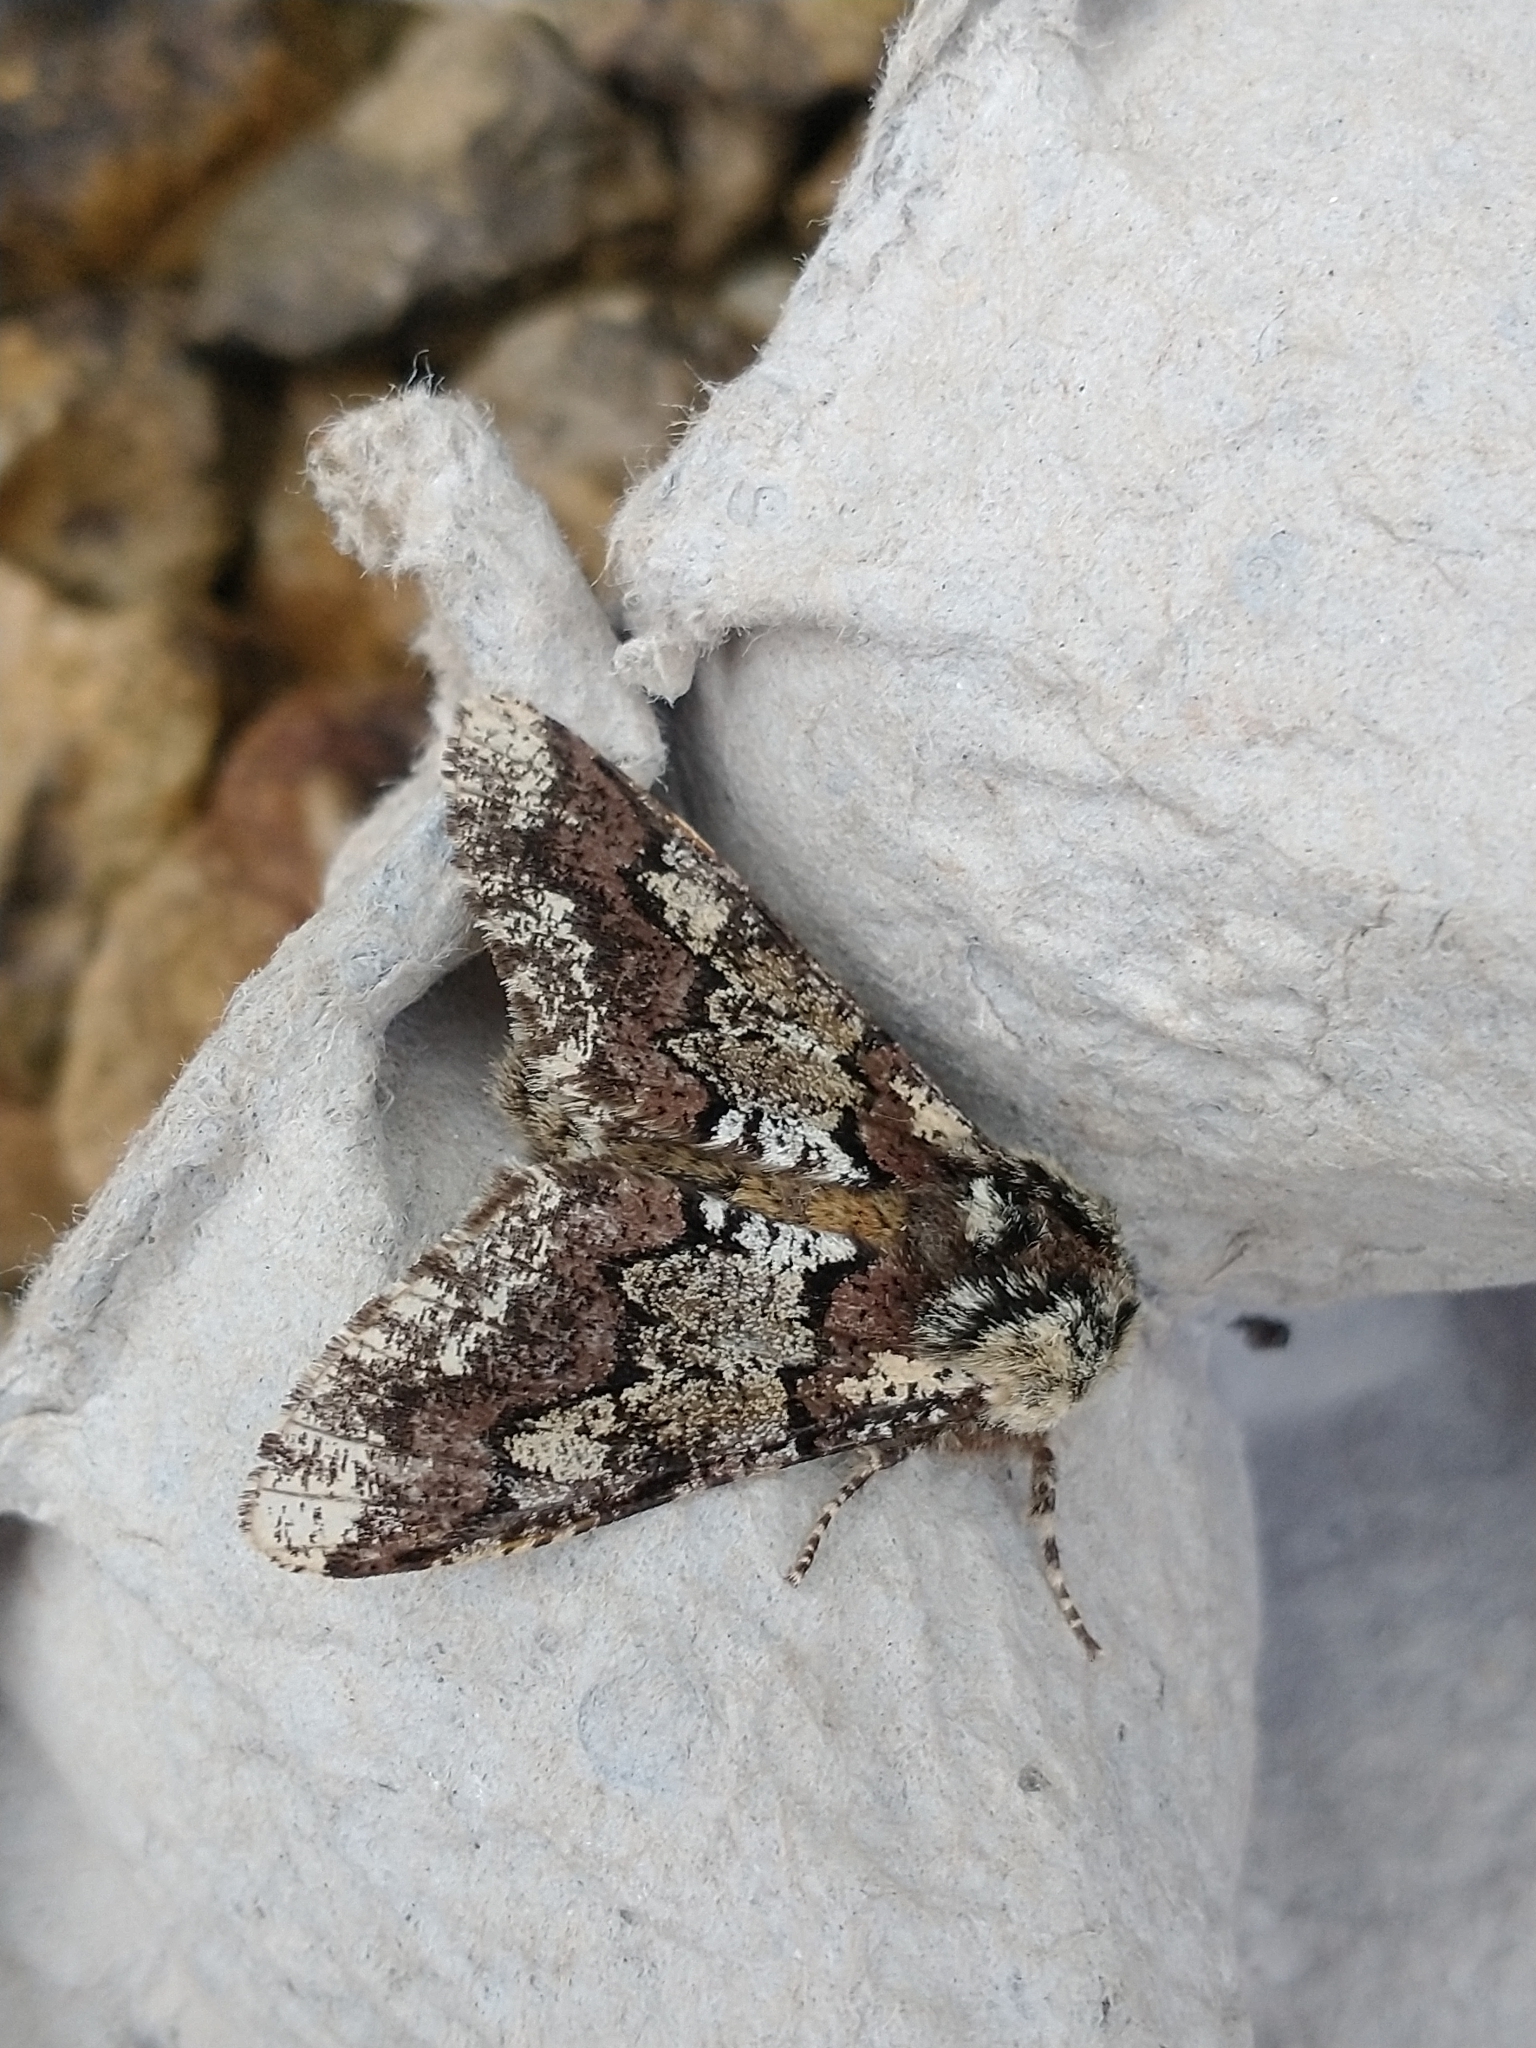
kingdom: Animalia
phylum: Arthropoda
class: Insecta
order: Lepidoptera
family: Geometridae
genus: Biston
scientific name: Biston strataria
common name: Oak beauty
